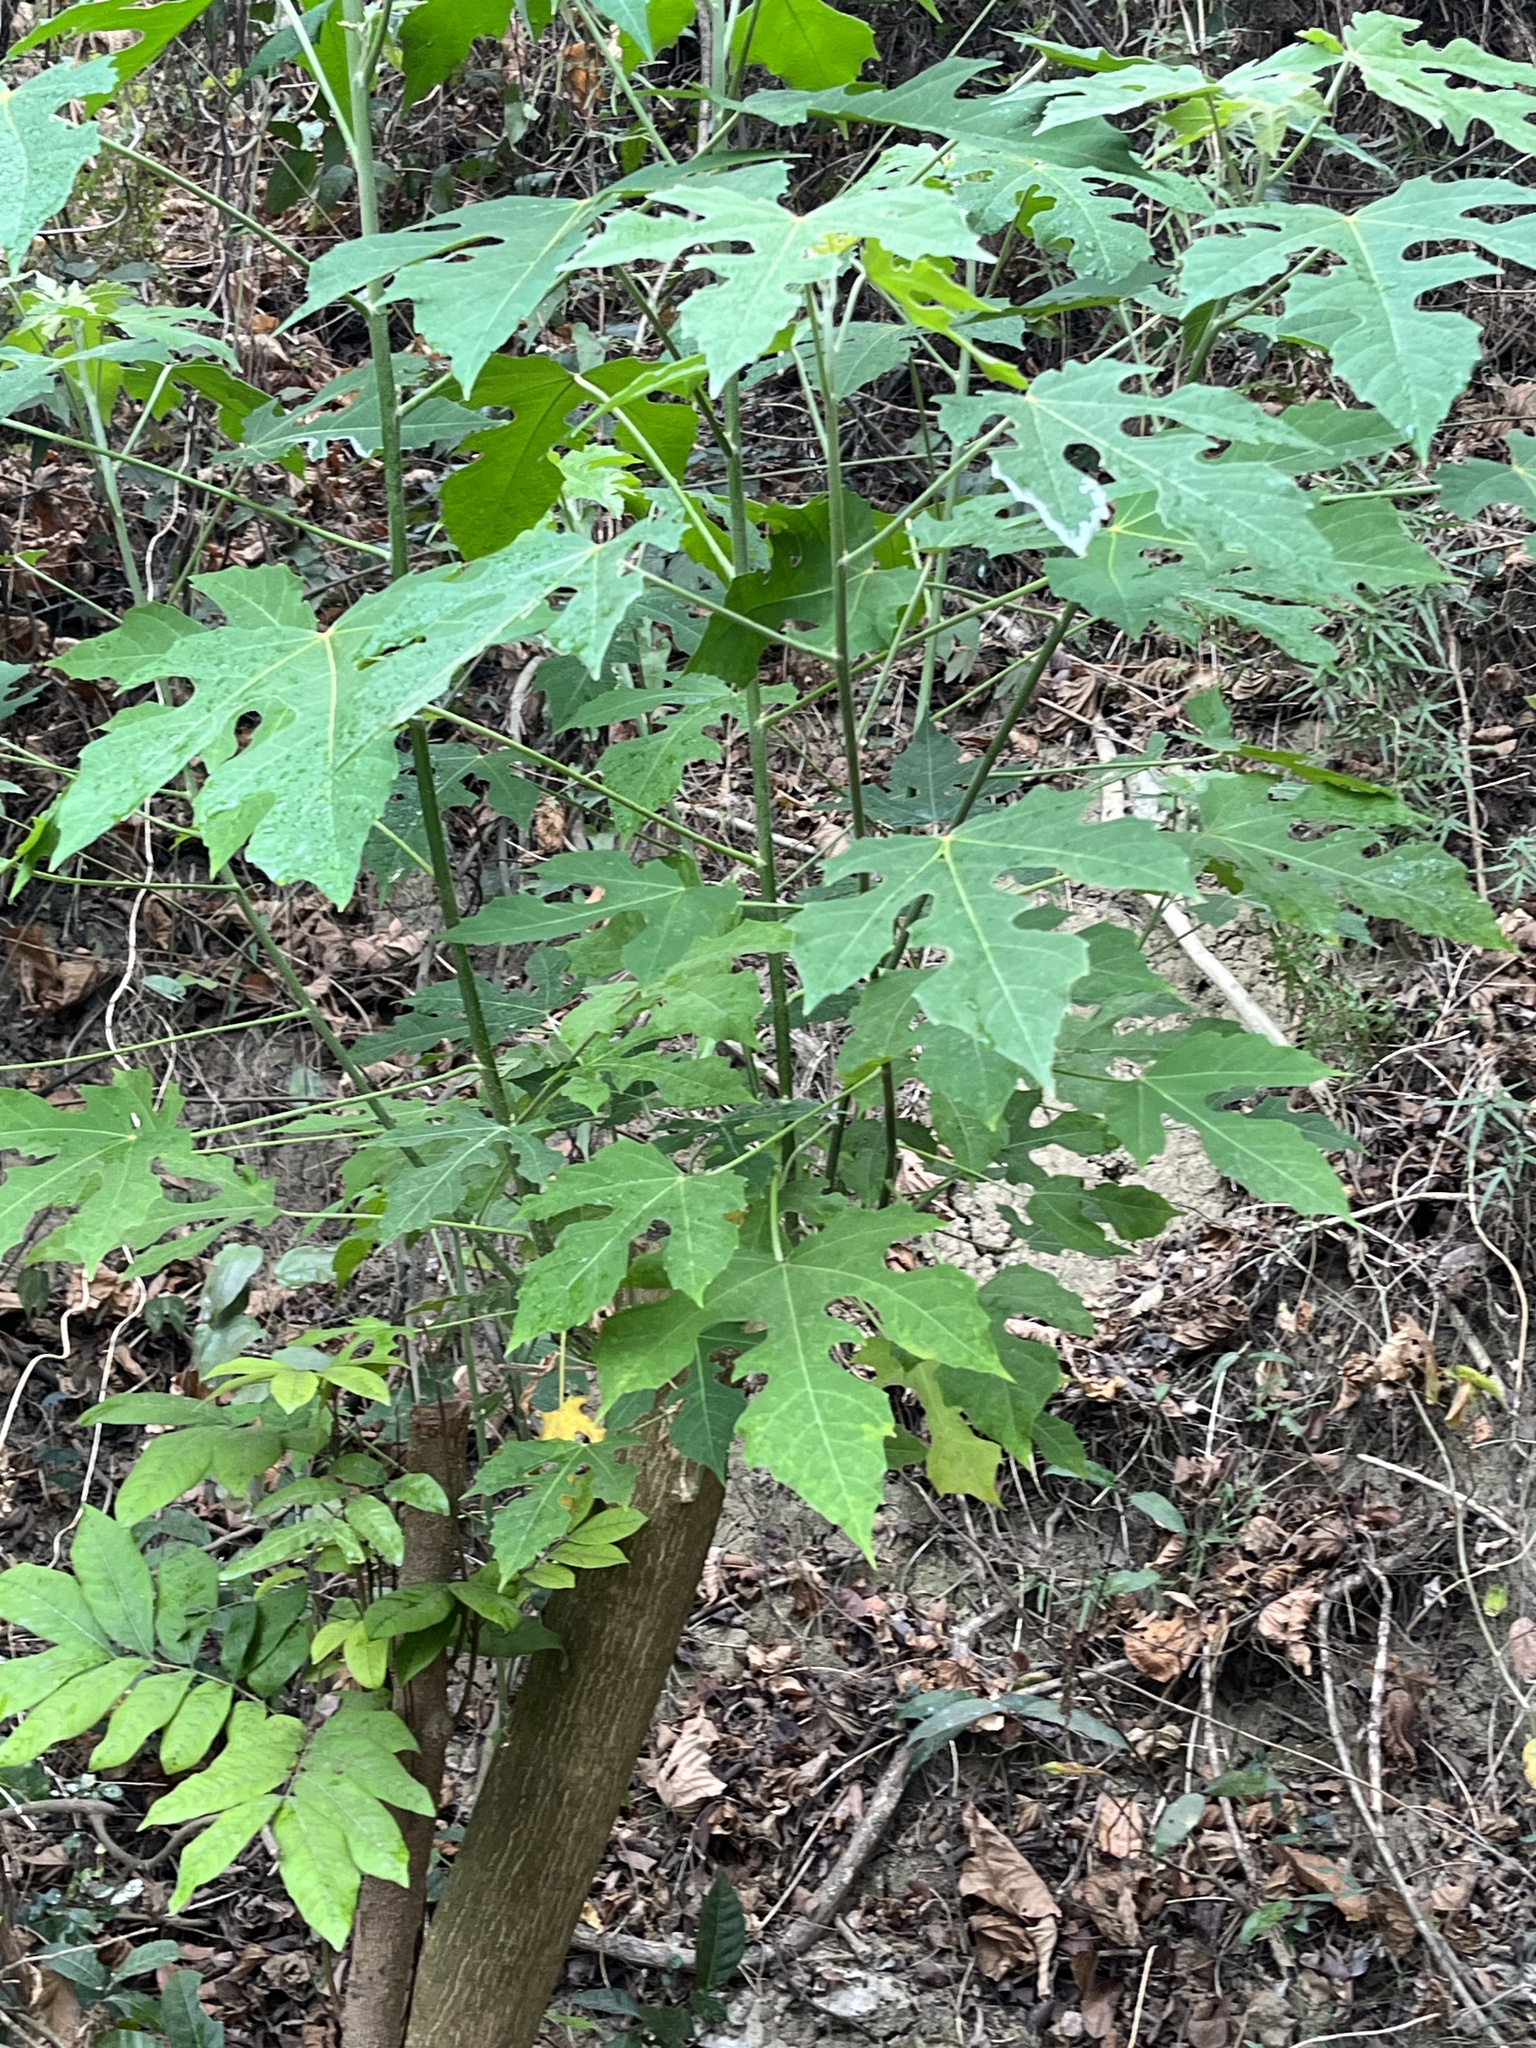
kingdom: Plantae
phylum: Tracheophyta
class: Magnoliopsida
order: Malpighiales
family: Euphorbiaceae
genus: Melanolepis
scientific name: Melanolepis multiglandulosa
